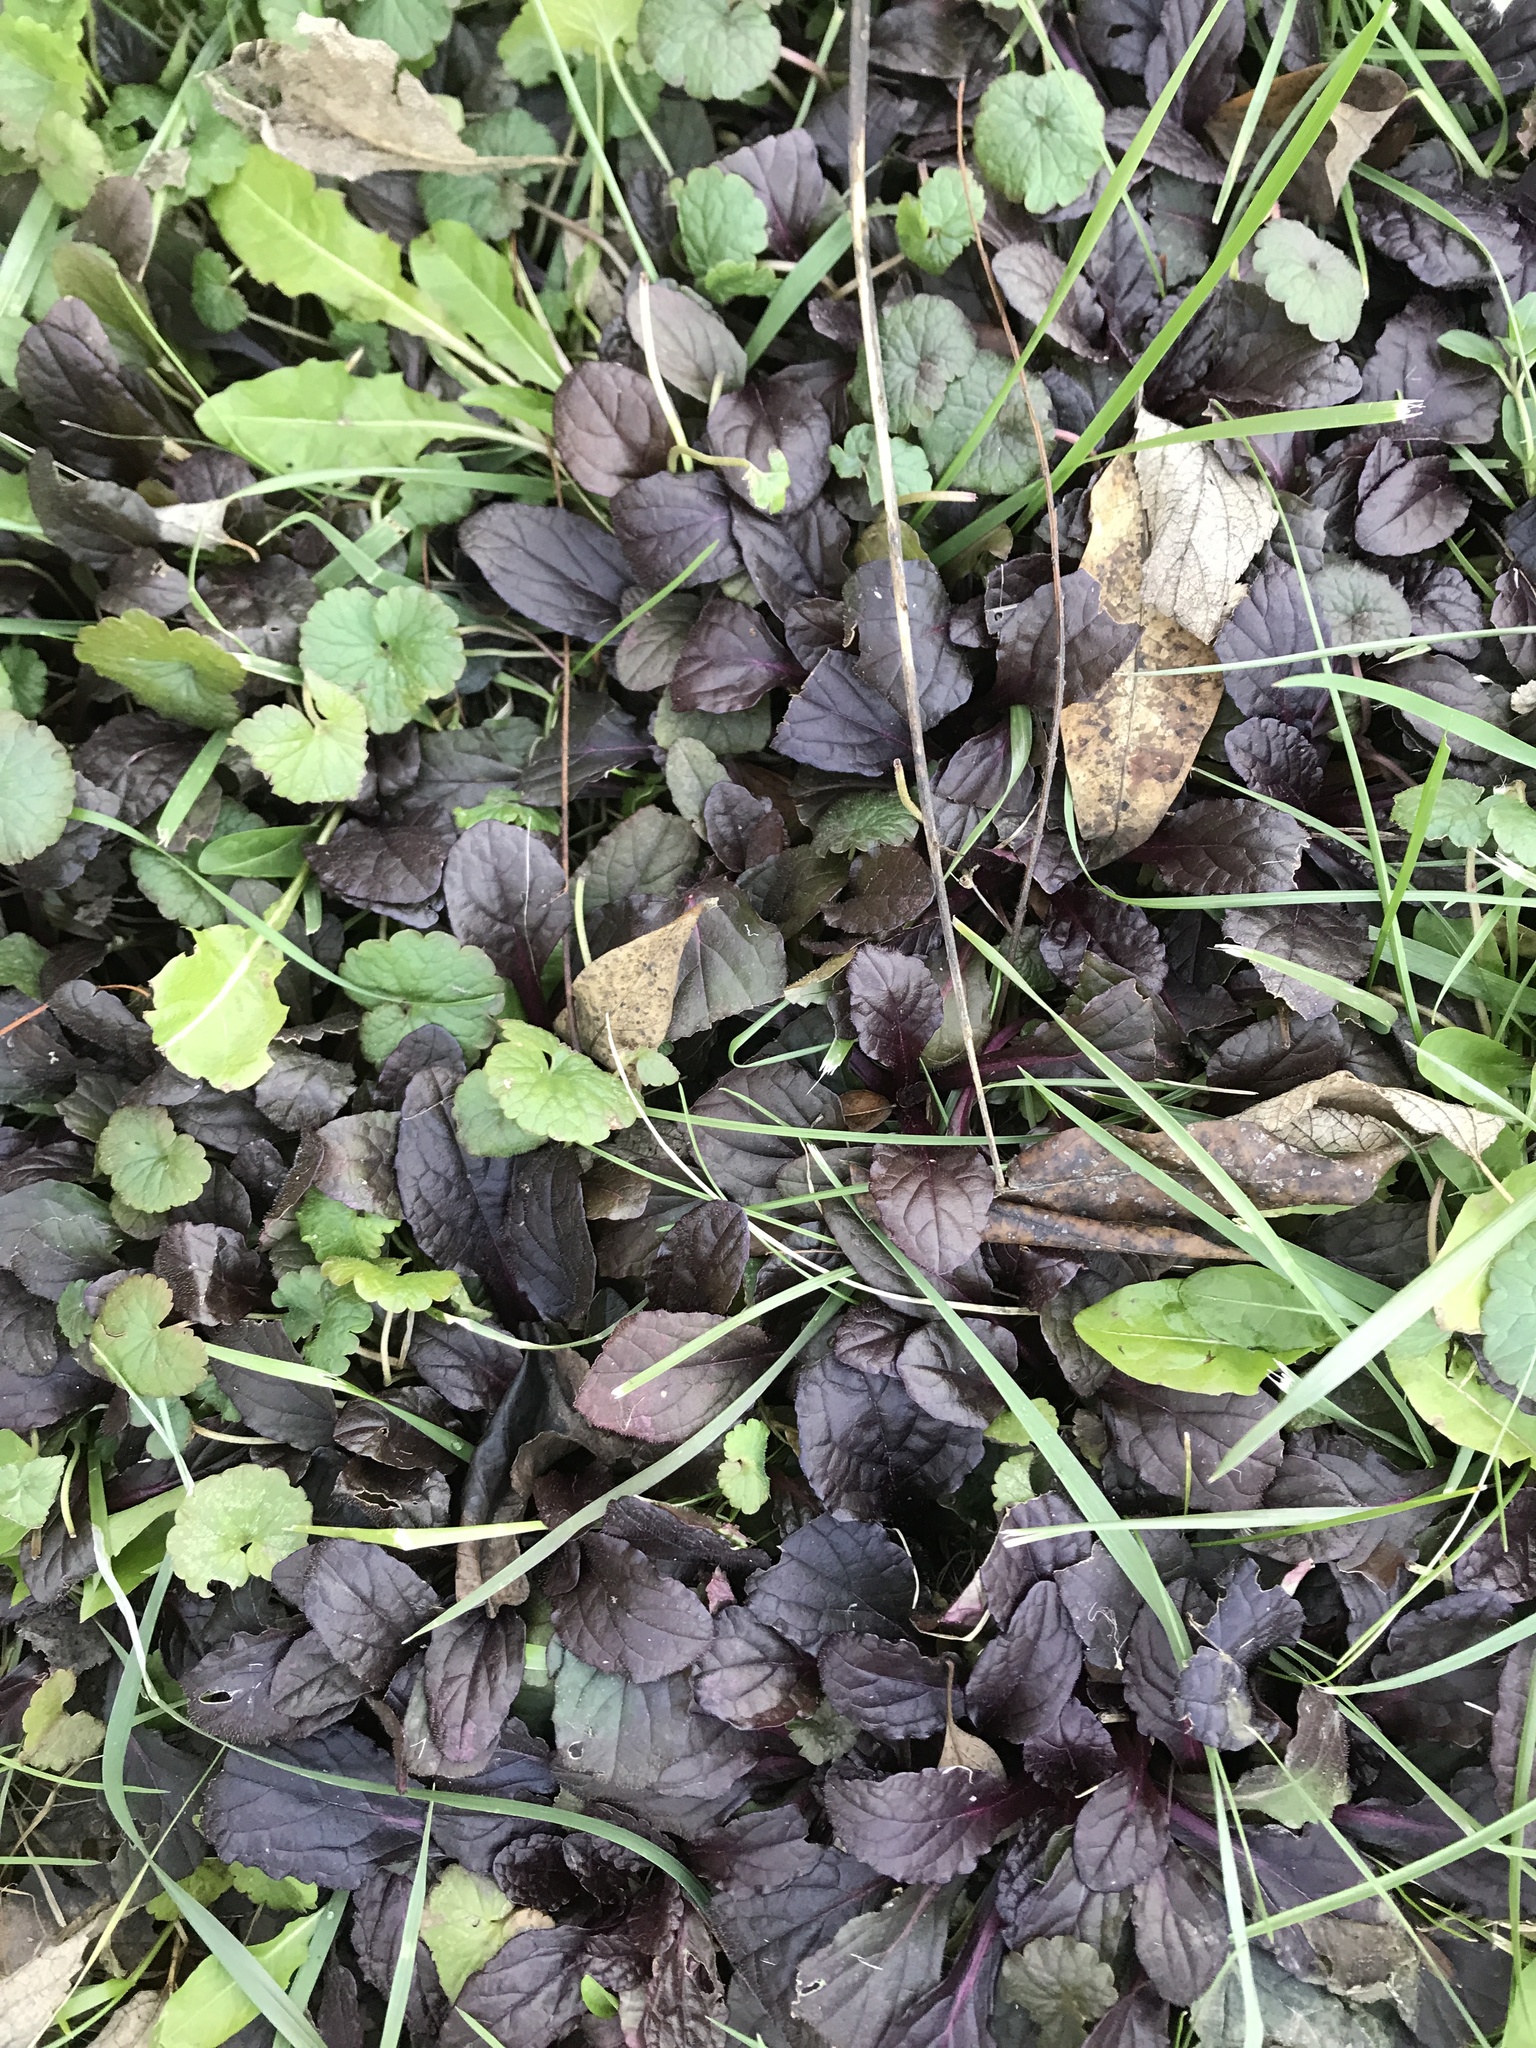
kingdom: Plantae
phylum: Tracheophyta
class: Magnoliopsida
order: Lamiales
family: Lamiaceae
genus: Ajuga
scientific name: Ajuga reptans
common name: Bugle
